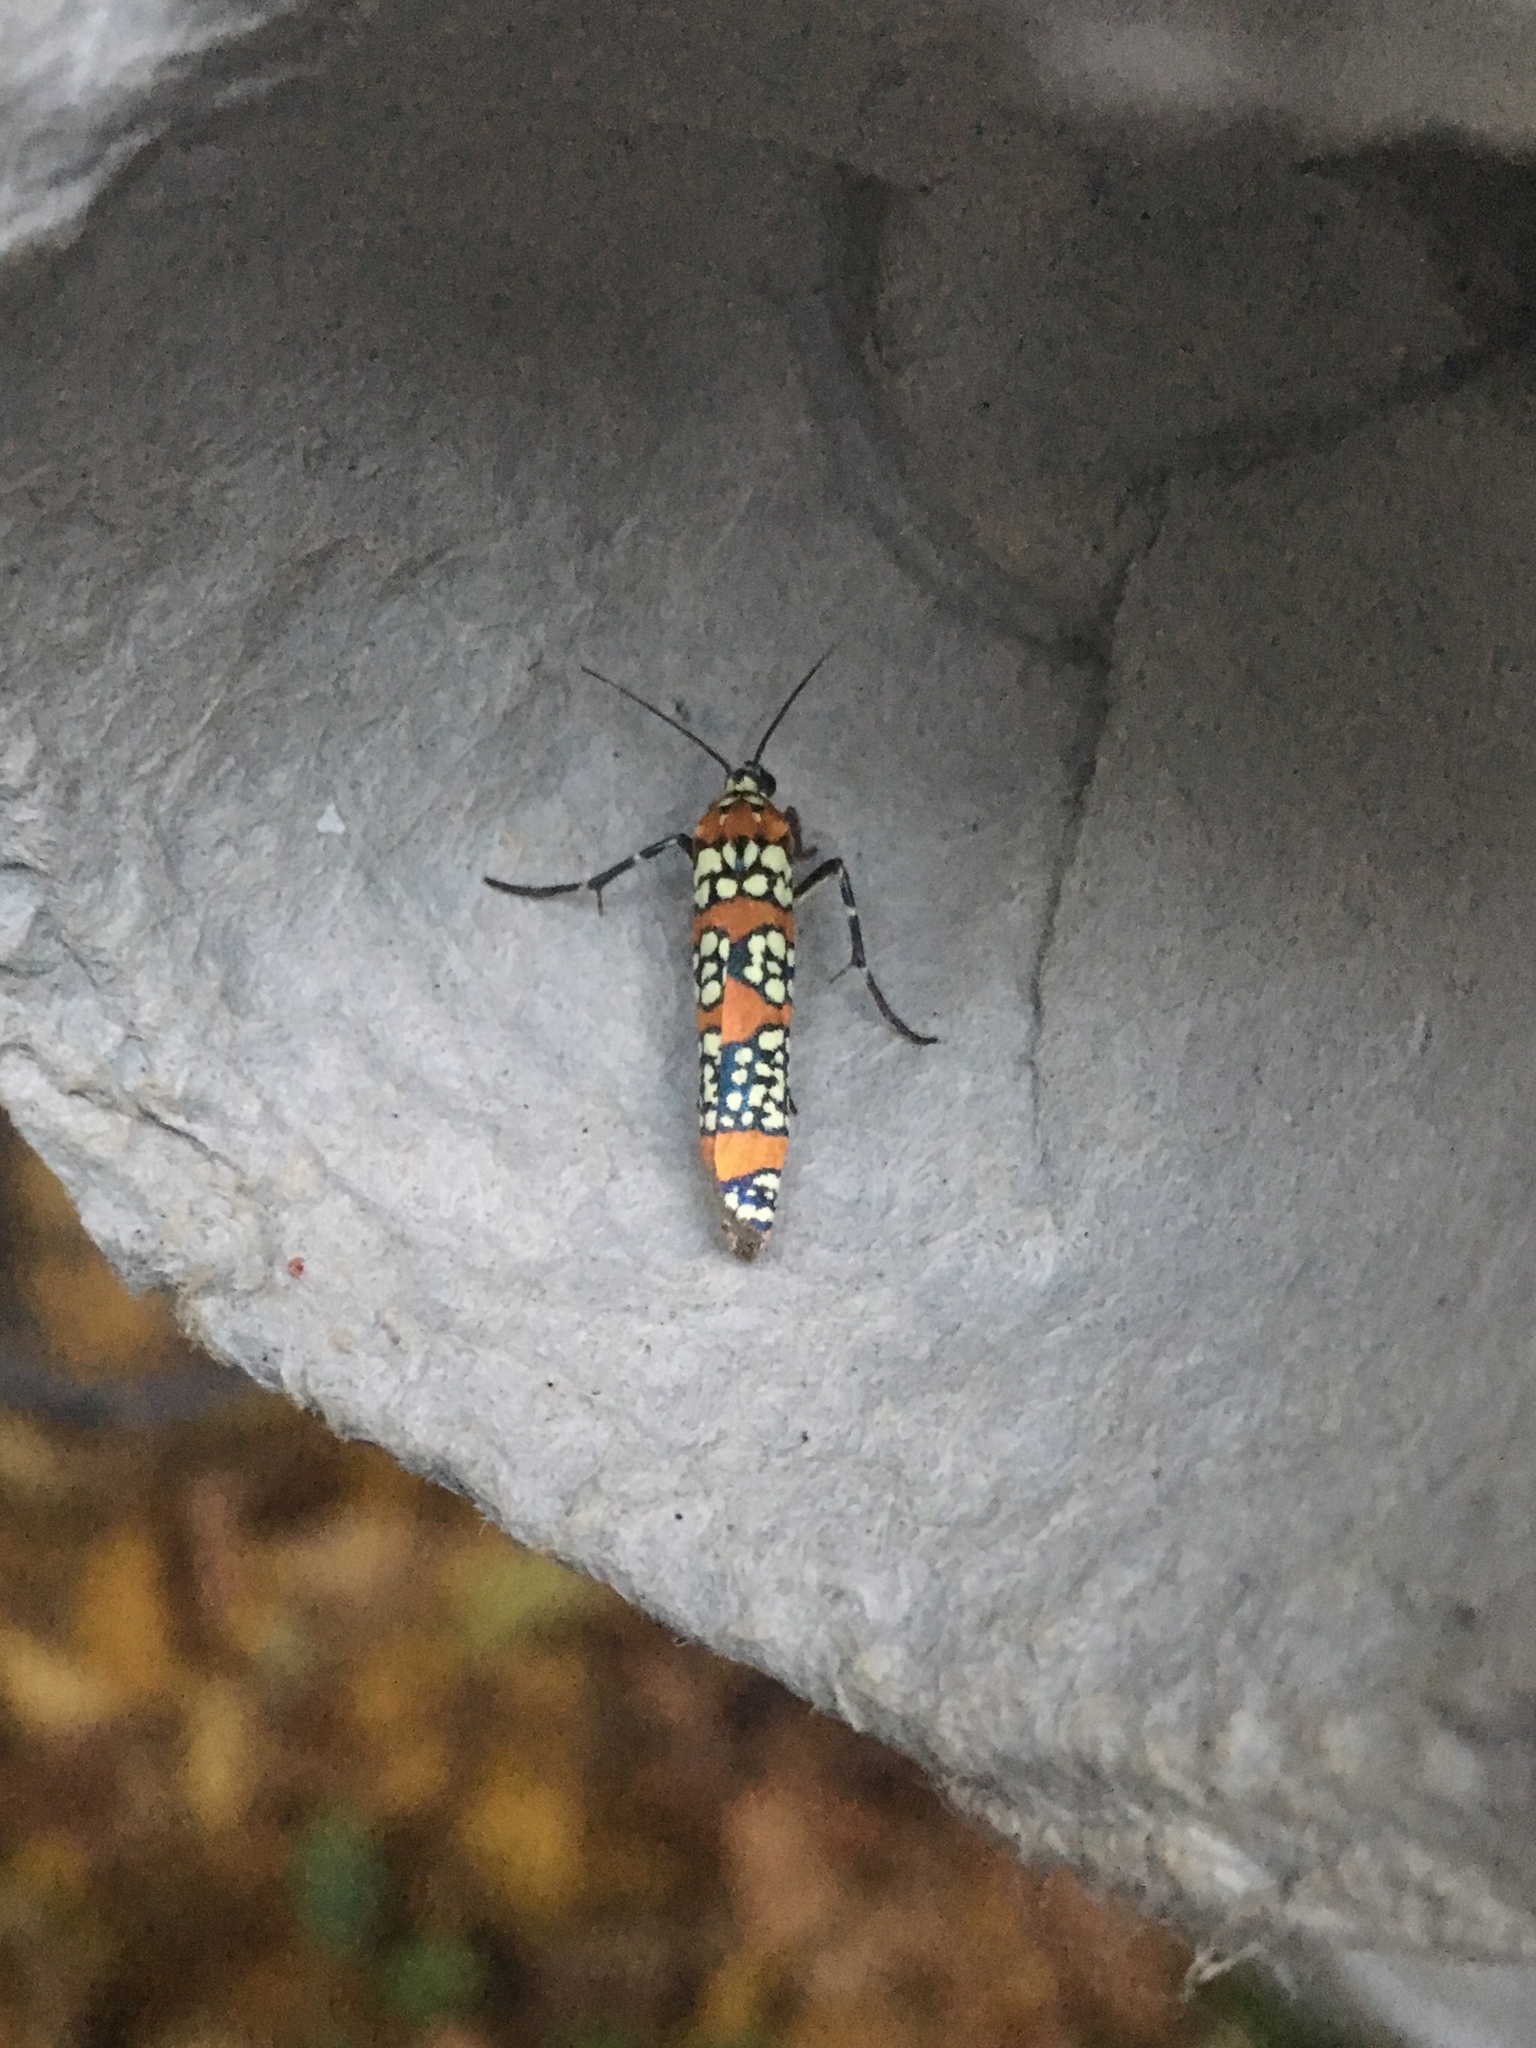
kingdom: Animalia
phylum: Arthropoda
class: Insecta
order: Lepidoptera
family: Attevidae
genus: Atteva
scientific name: Atteva punctella
